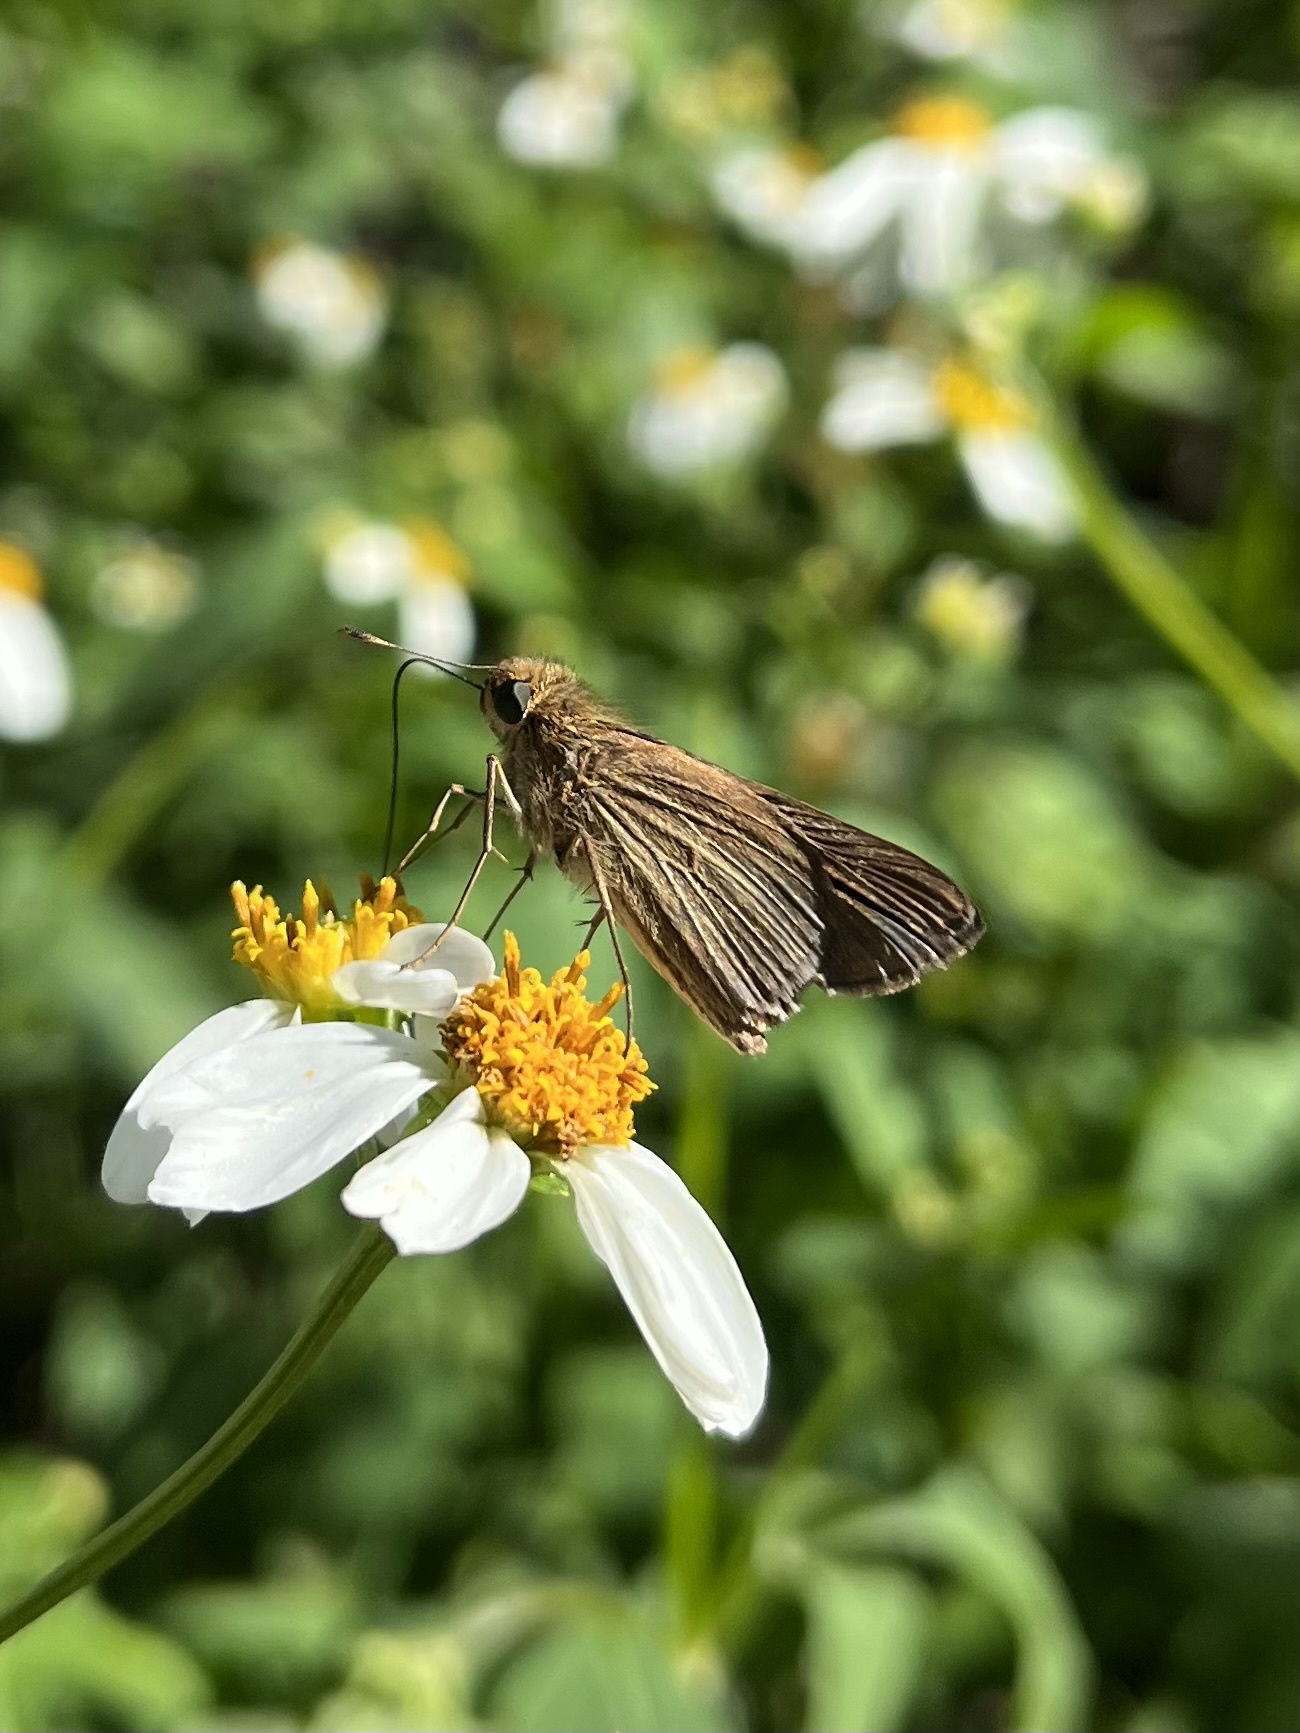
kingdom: Animalia
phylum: Arthropoda
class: Insecta
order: Lepidoptera
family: Hesperiidae
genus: Panoquina
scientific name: Panoquina ocola
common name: Ocola skipper
